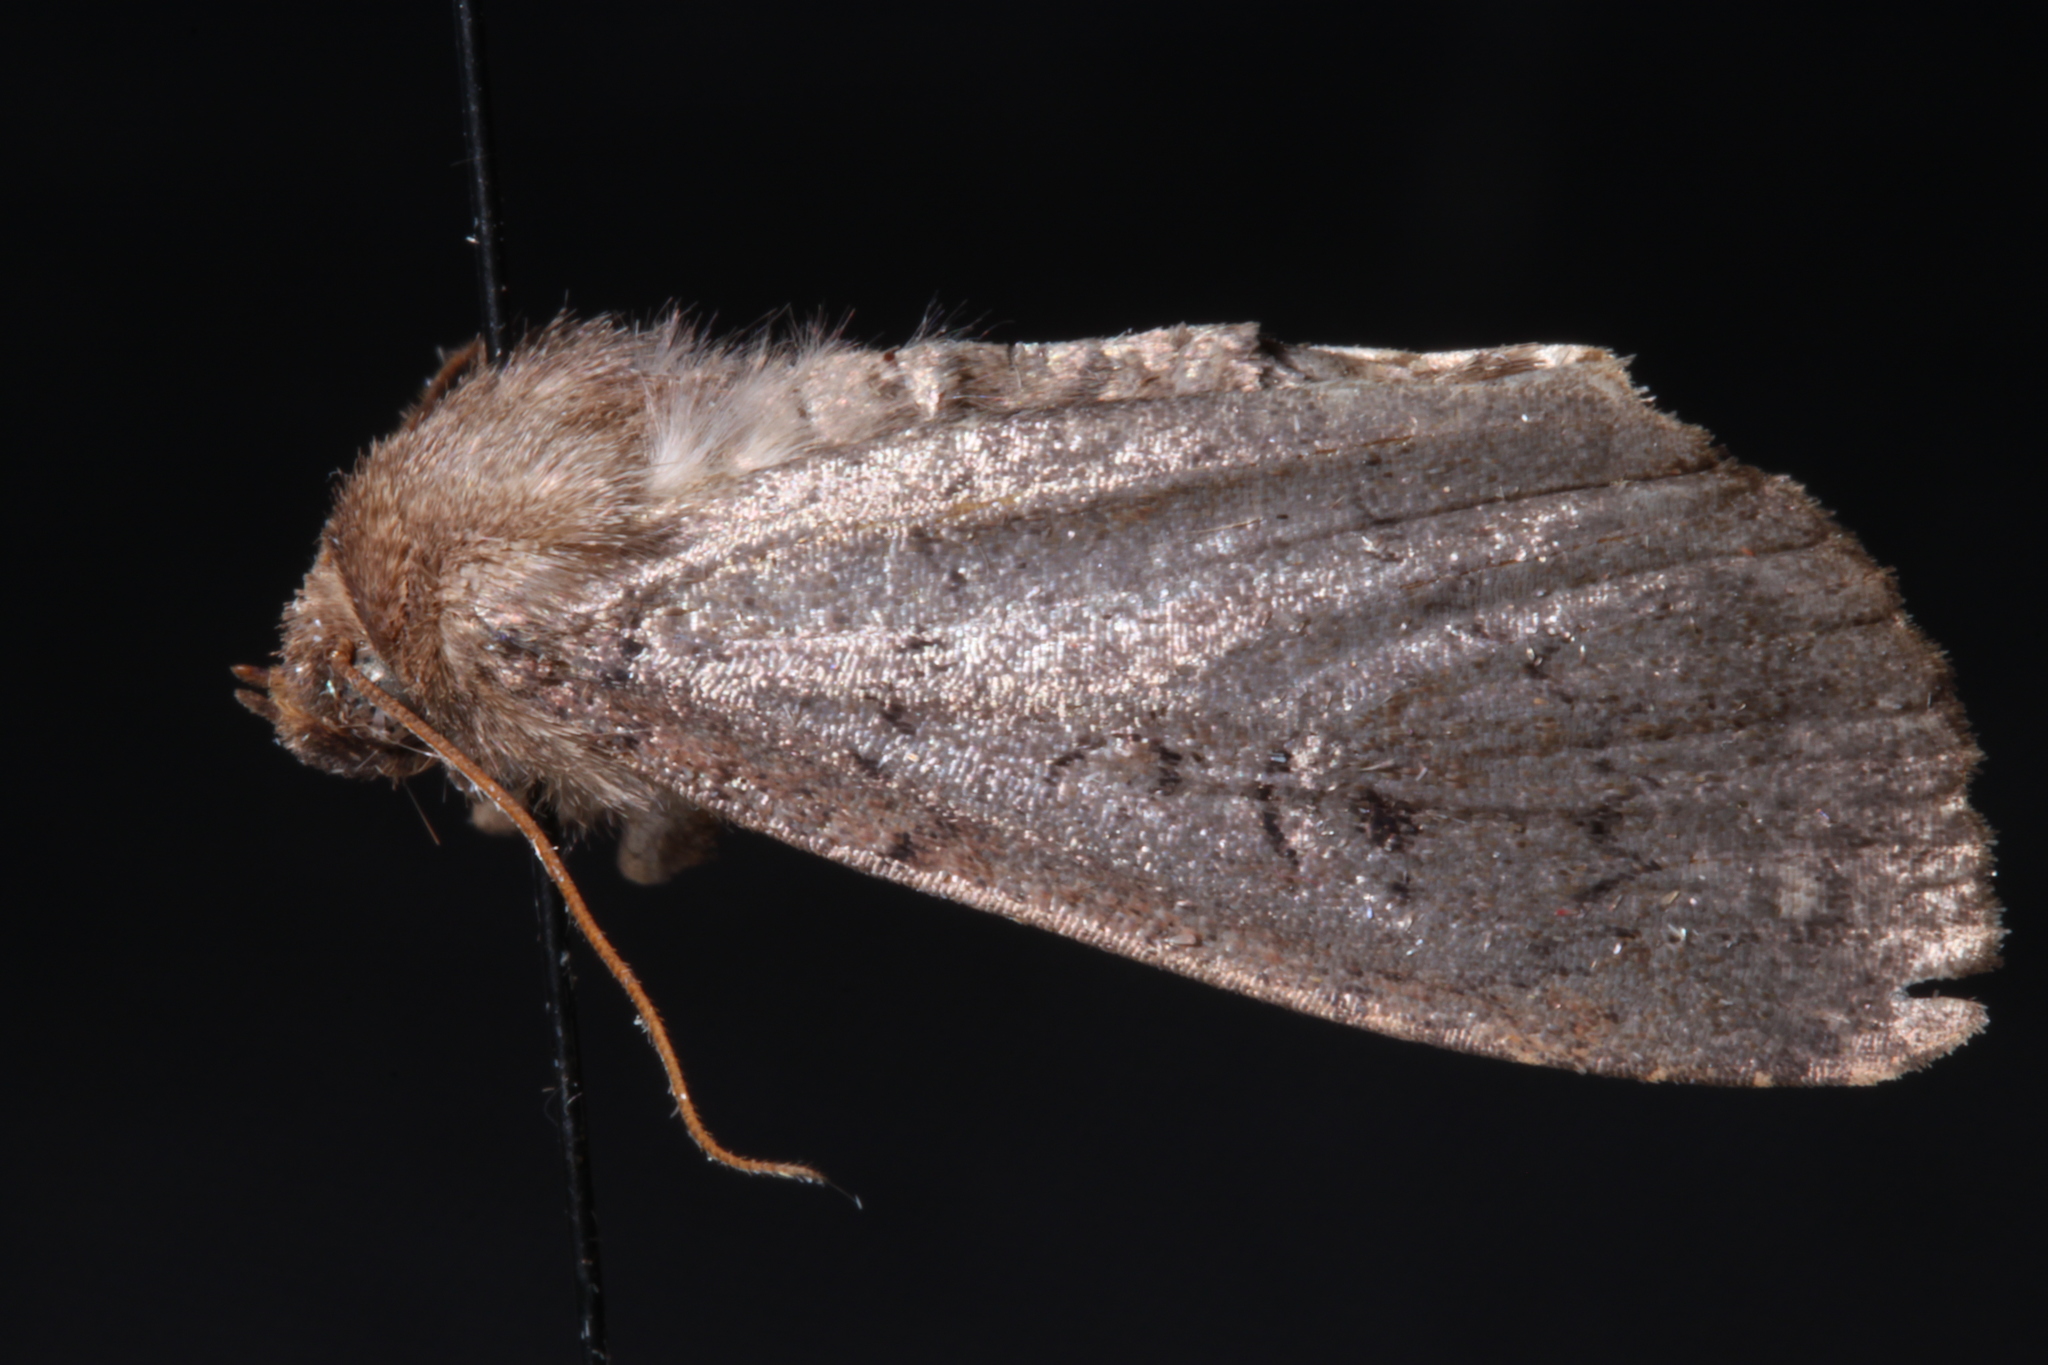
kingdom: Animalia
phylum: Arthropoda
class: Insecta
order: Lepidoptera
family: Noctuidae
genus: Graphiphora
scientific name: Graphiphora augur
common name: Double dart
